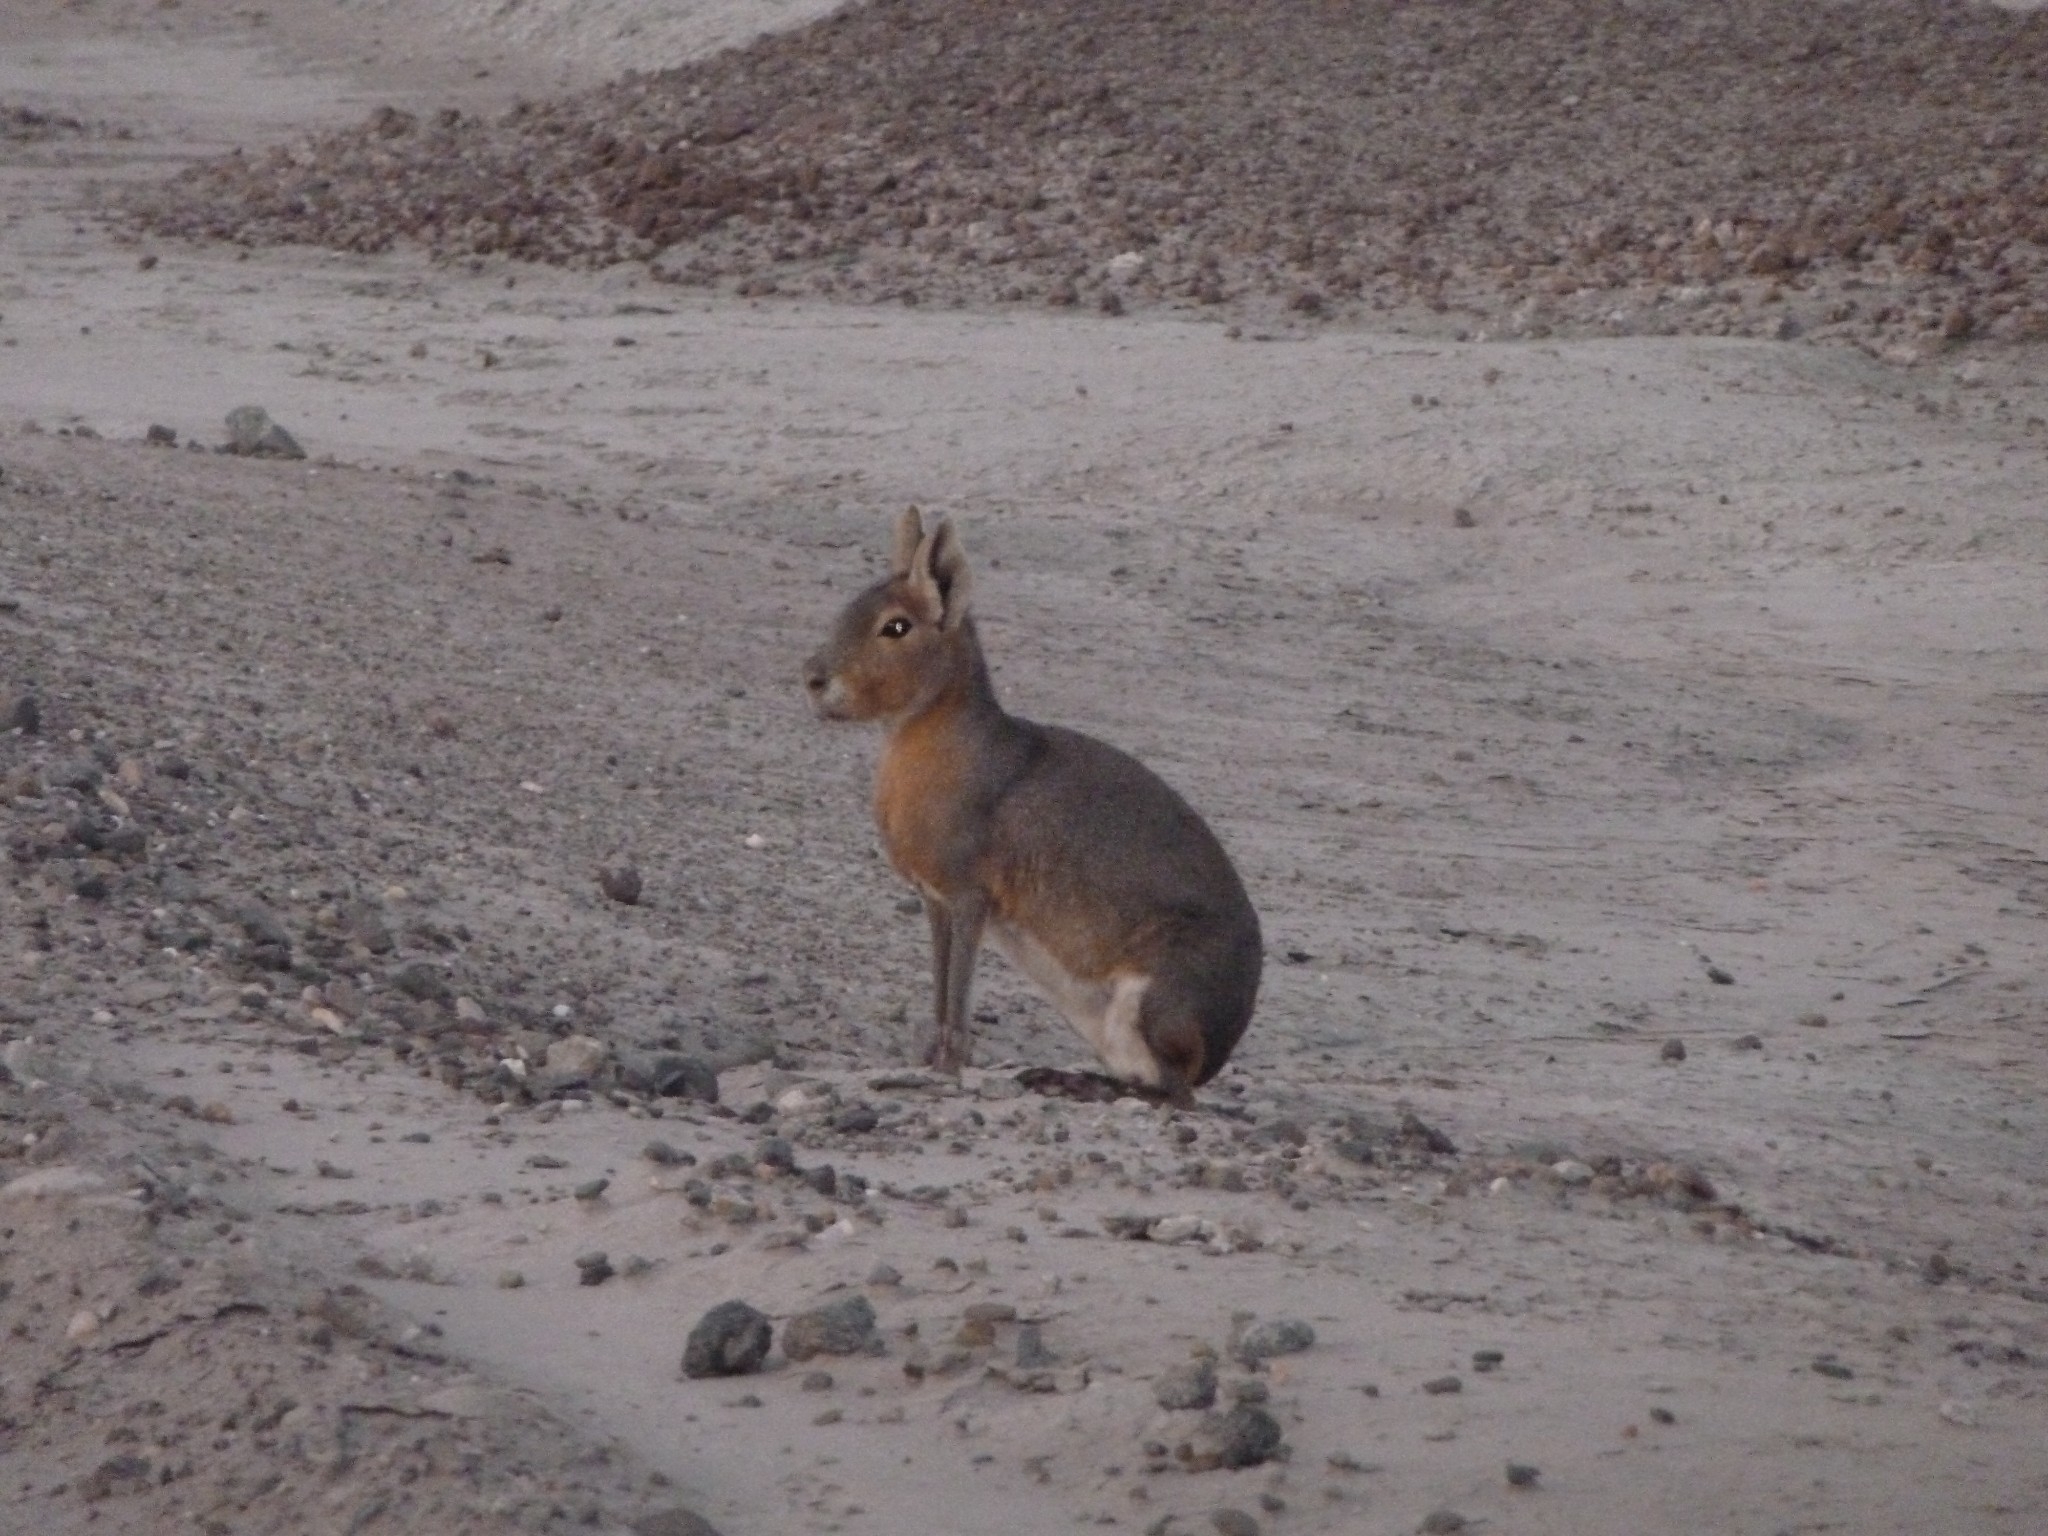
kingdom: Animalia
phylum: Chordata
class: Mammalia
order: Rodentia
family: Caviidae
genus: Dolichotis
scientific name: Dolichotis patagonum
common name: Patagonian mara
